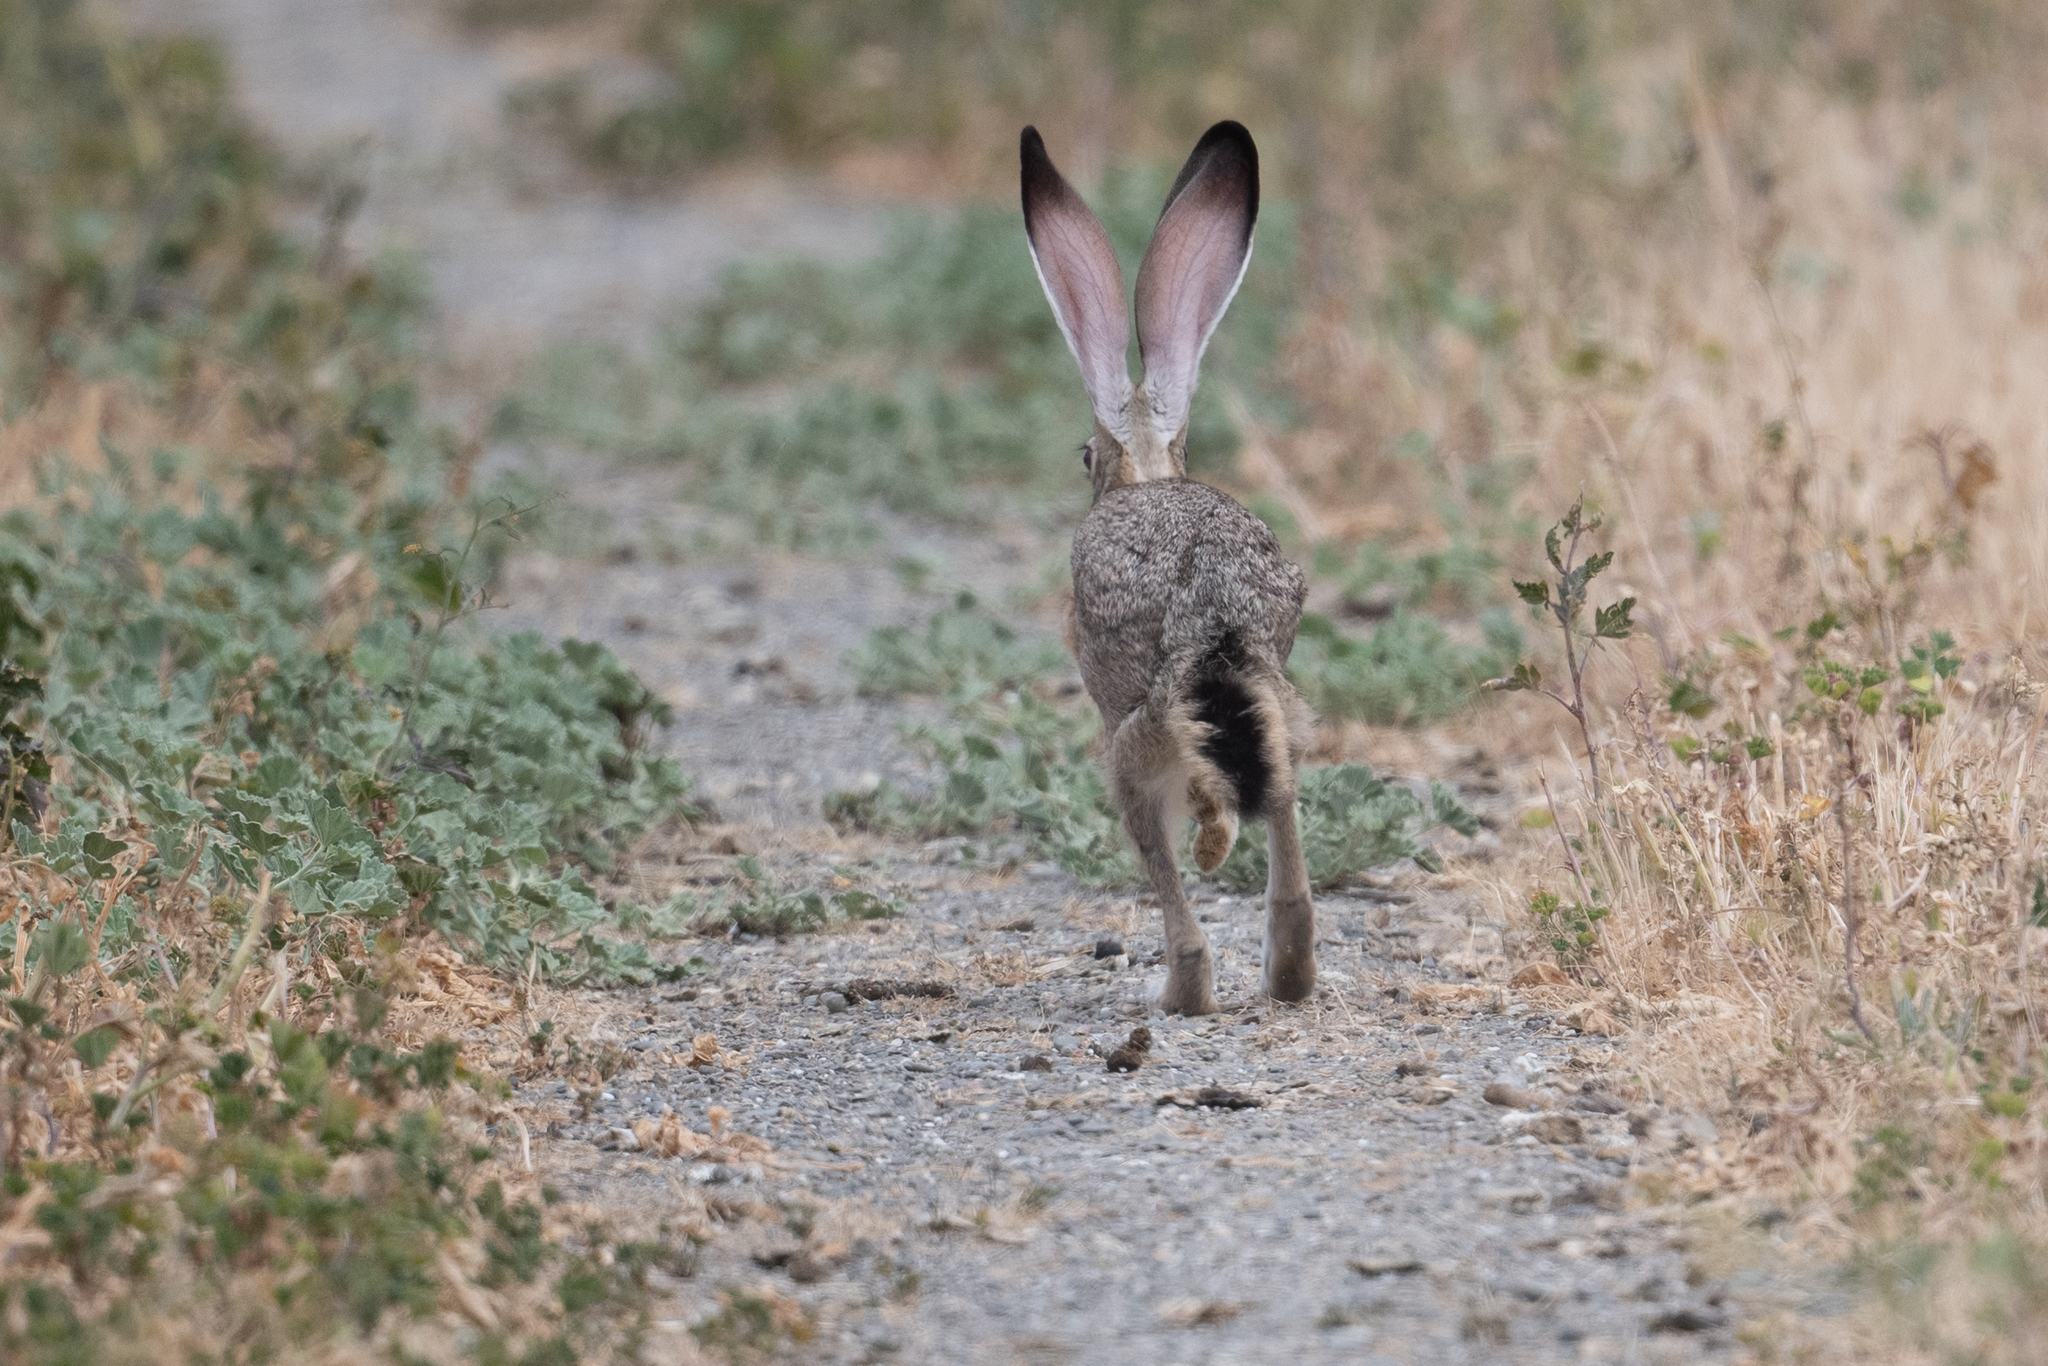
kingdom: Animalia
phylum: Chordata
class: Mammalia
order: Lagomorpha
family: Leporidae
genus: Lepus
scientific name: Lepus californicus
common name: Black-tailed jackrabbit
